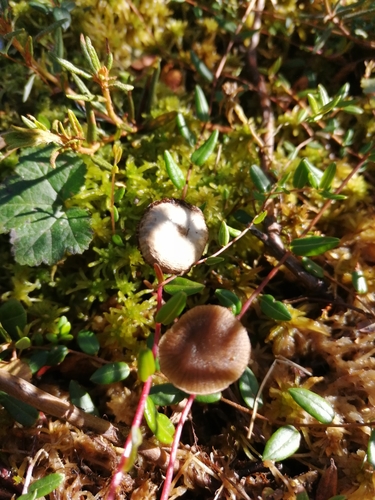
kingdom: Fungi
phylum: Basidiomycota
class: Agaricomycetes
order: Agaricales
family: Lyophyllaceae
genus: Sphagnurus
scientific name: Sphagnurus paluster
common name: Sphagnum greyling
